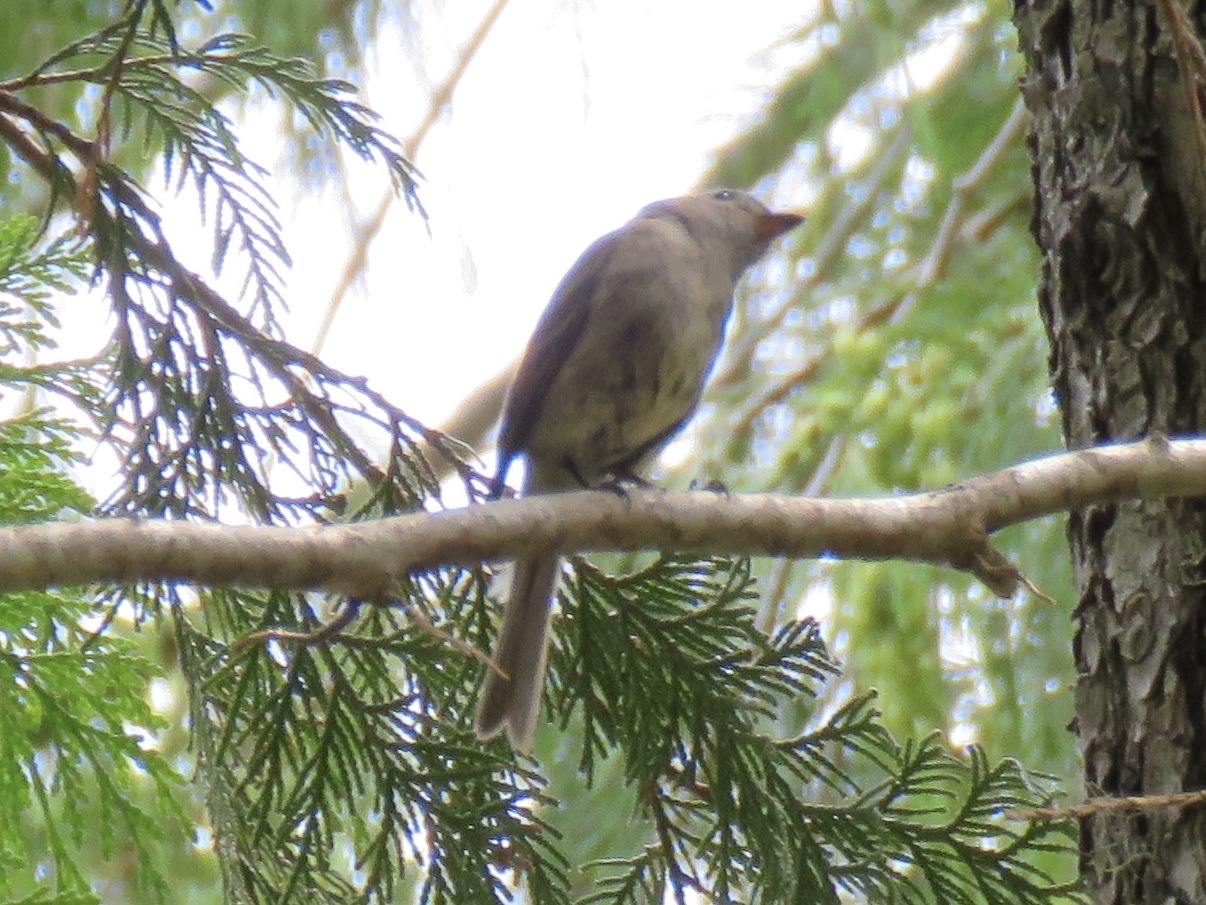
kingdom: Animalia
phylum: Chordata
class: Aves
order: Passeriformes
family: Tyrannidae
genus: Empidonax
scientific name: Empidonax hammondii
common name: Hammond's flycatcher
